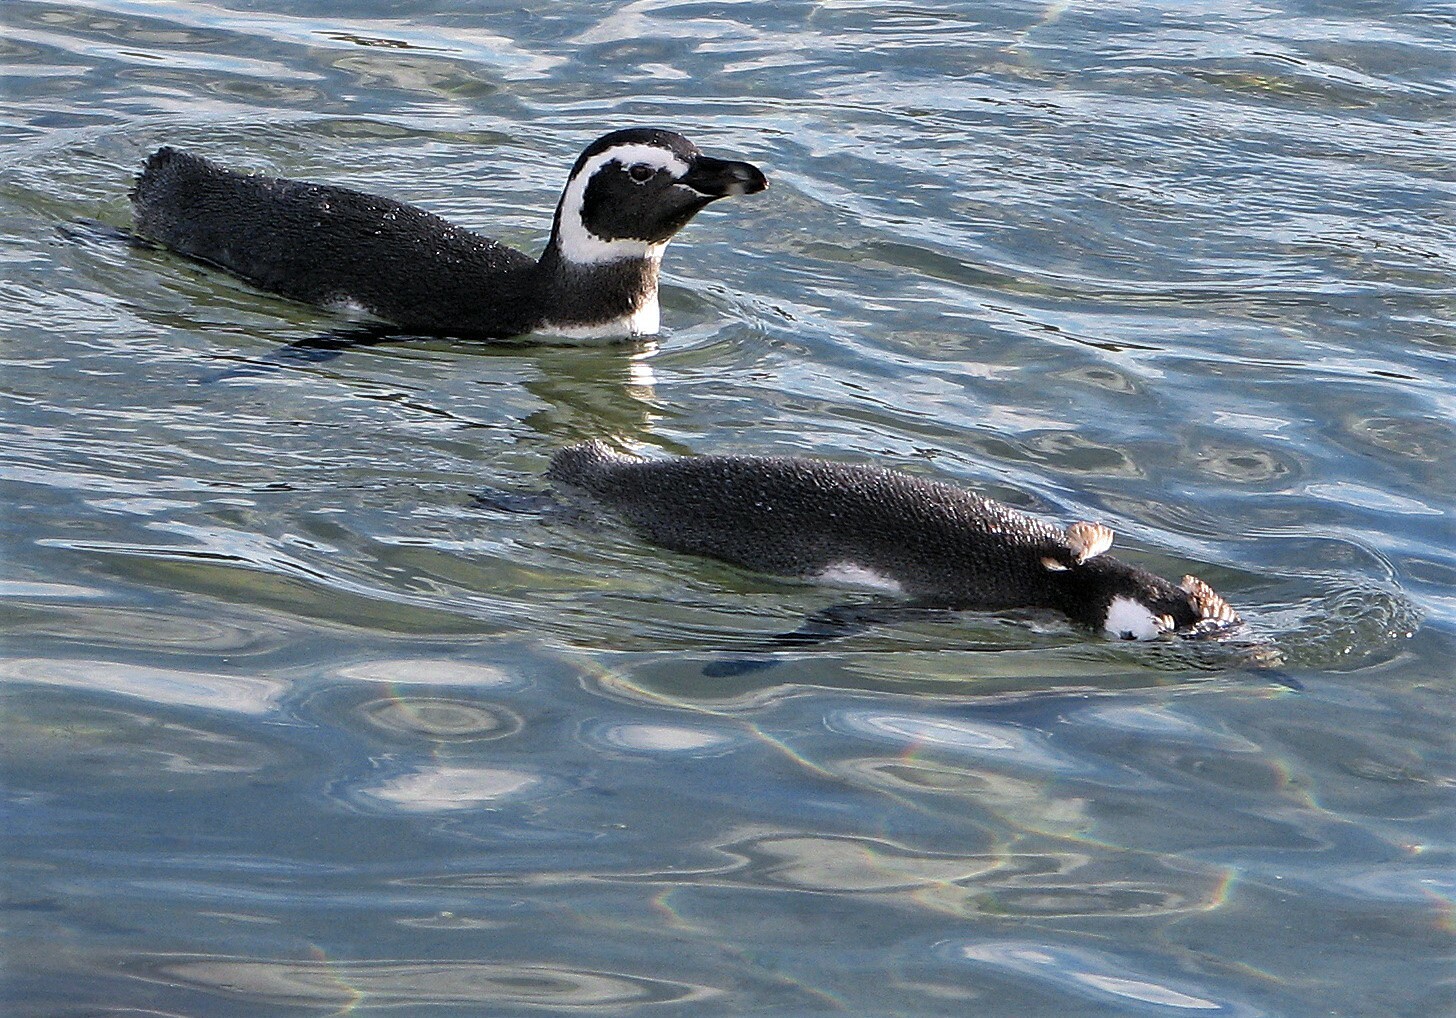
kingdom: Animalia
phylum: Chordata
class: Aves
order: Sphenisciformes
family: Spheniscidae
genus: Spheniscus
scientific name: Spheniscus magellanicus
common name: Magellanic penguin
